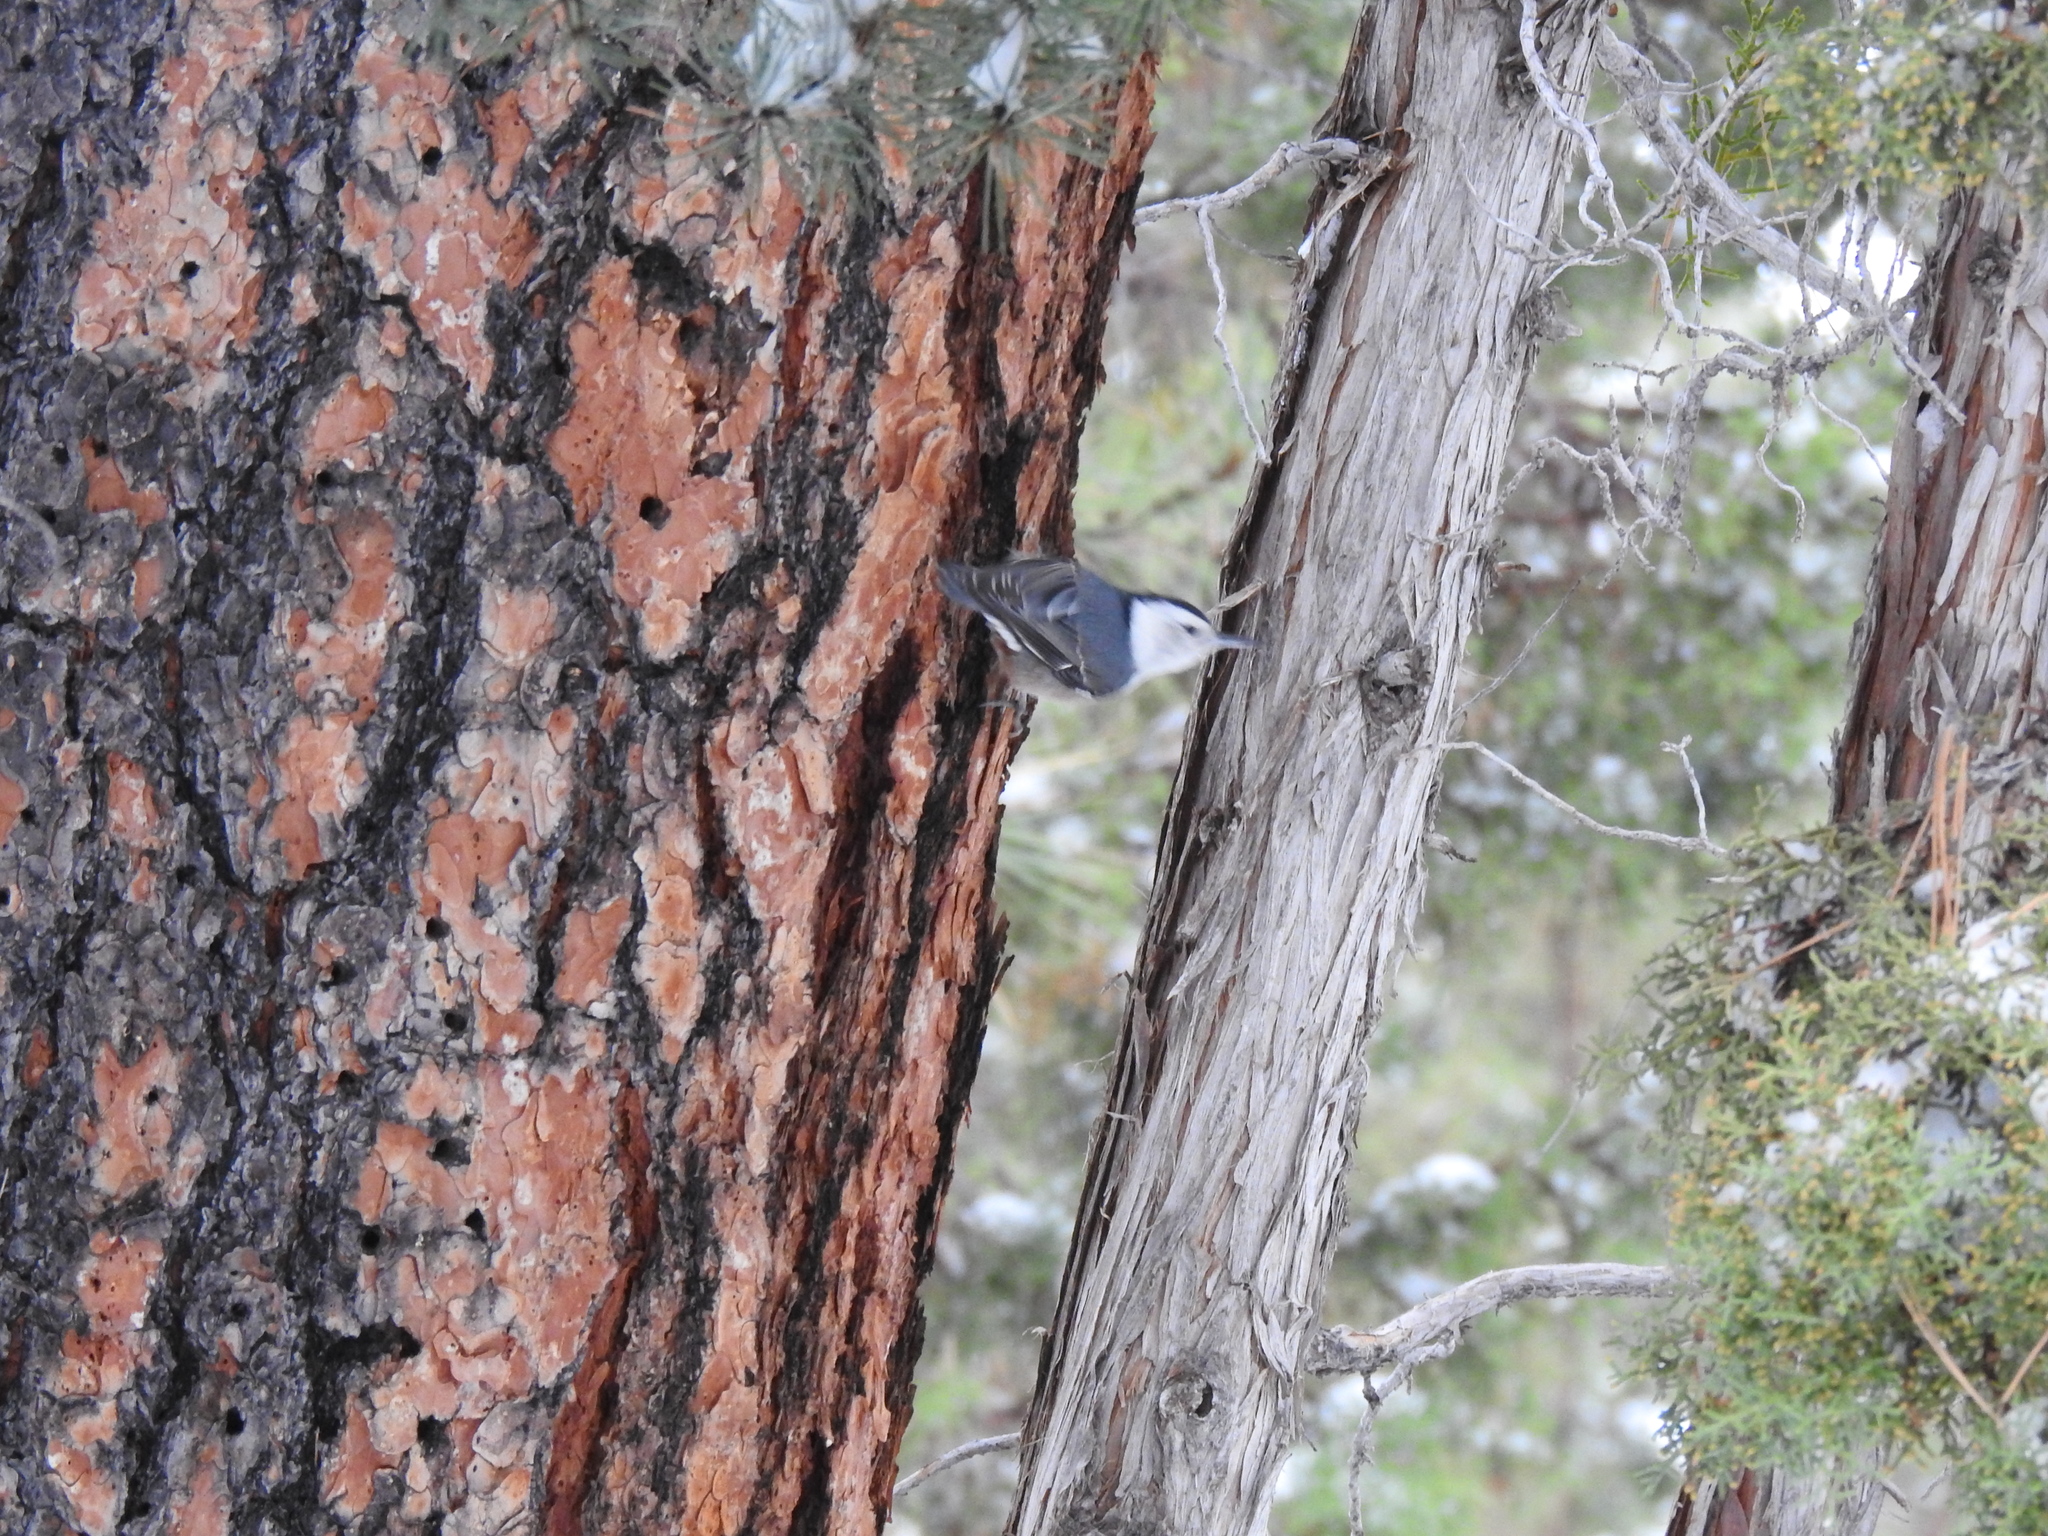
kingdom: Animalia
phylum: Chordata
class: Aves
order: Passeriformes
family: Sittidae
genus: Sitta
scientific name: Sitta carolinensis
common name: White-breasted nuthatch
